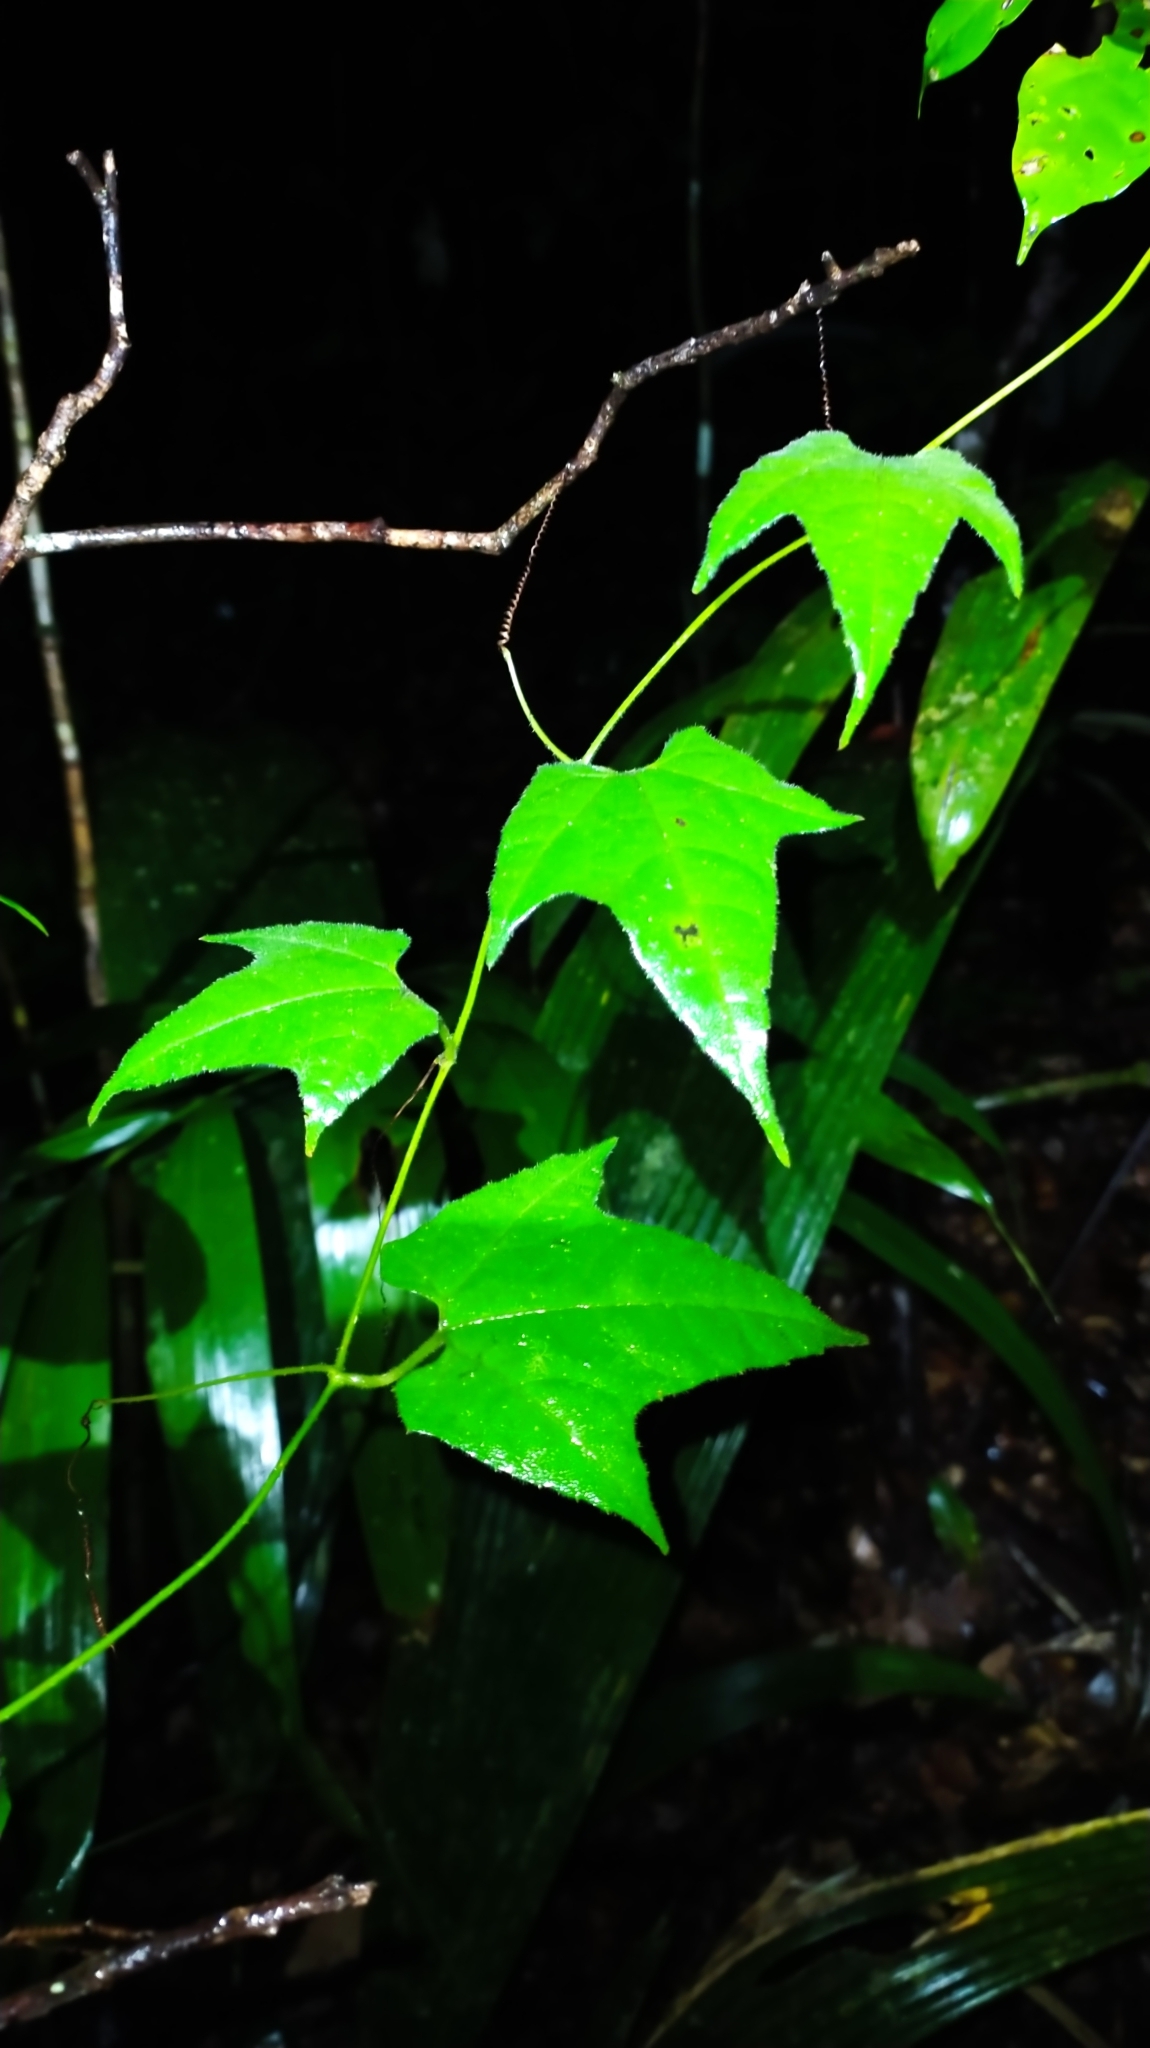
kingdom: Plantae
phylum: Tracheophyta
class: Magnoliopsida
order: Cucurbitales
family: Cucurbitaceae
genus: Cayaponia
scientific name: Cayaponia selysioides
